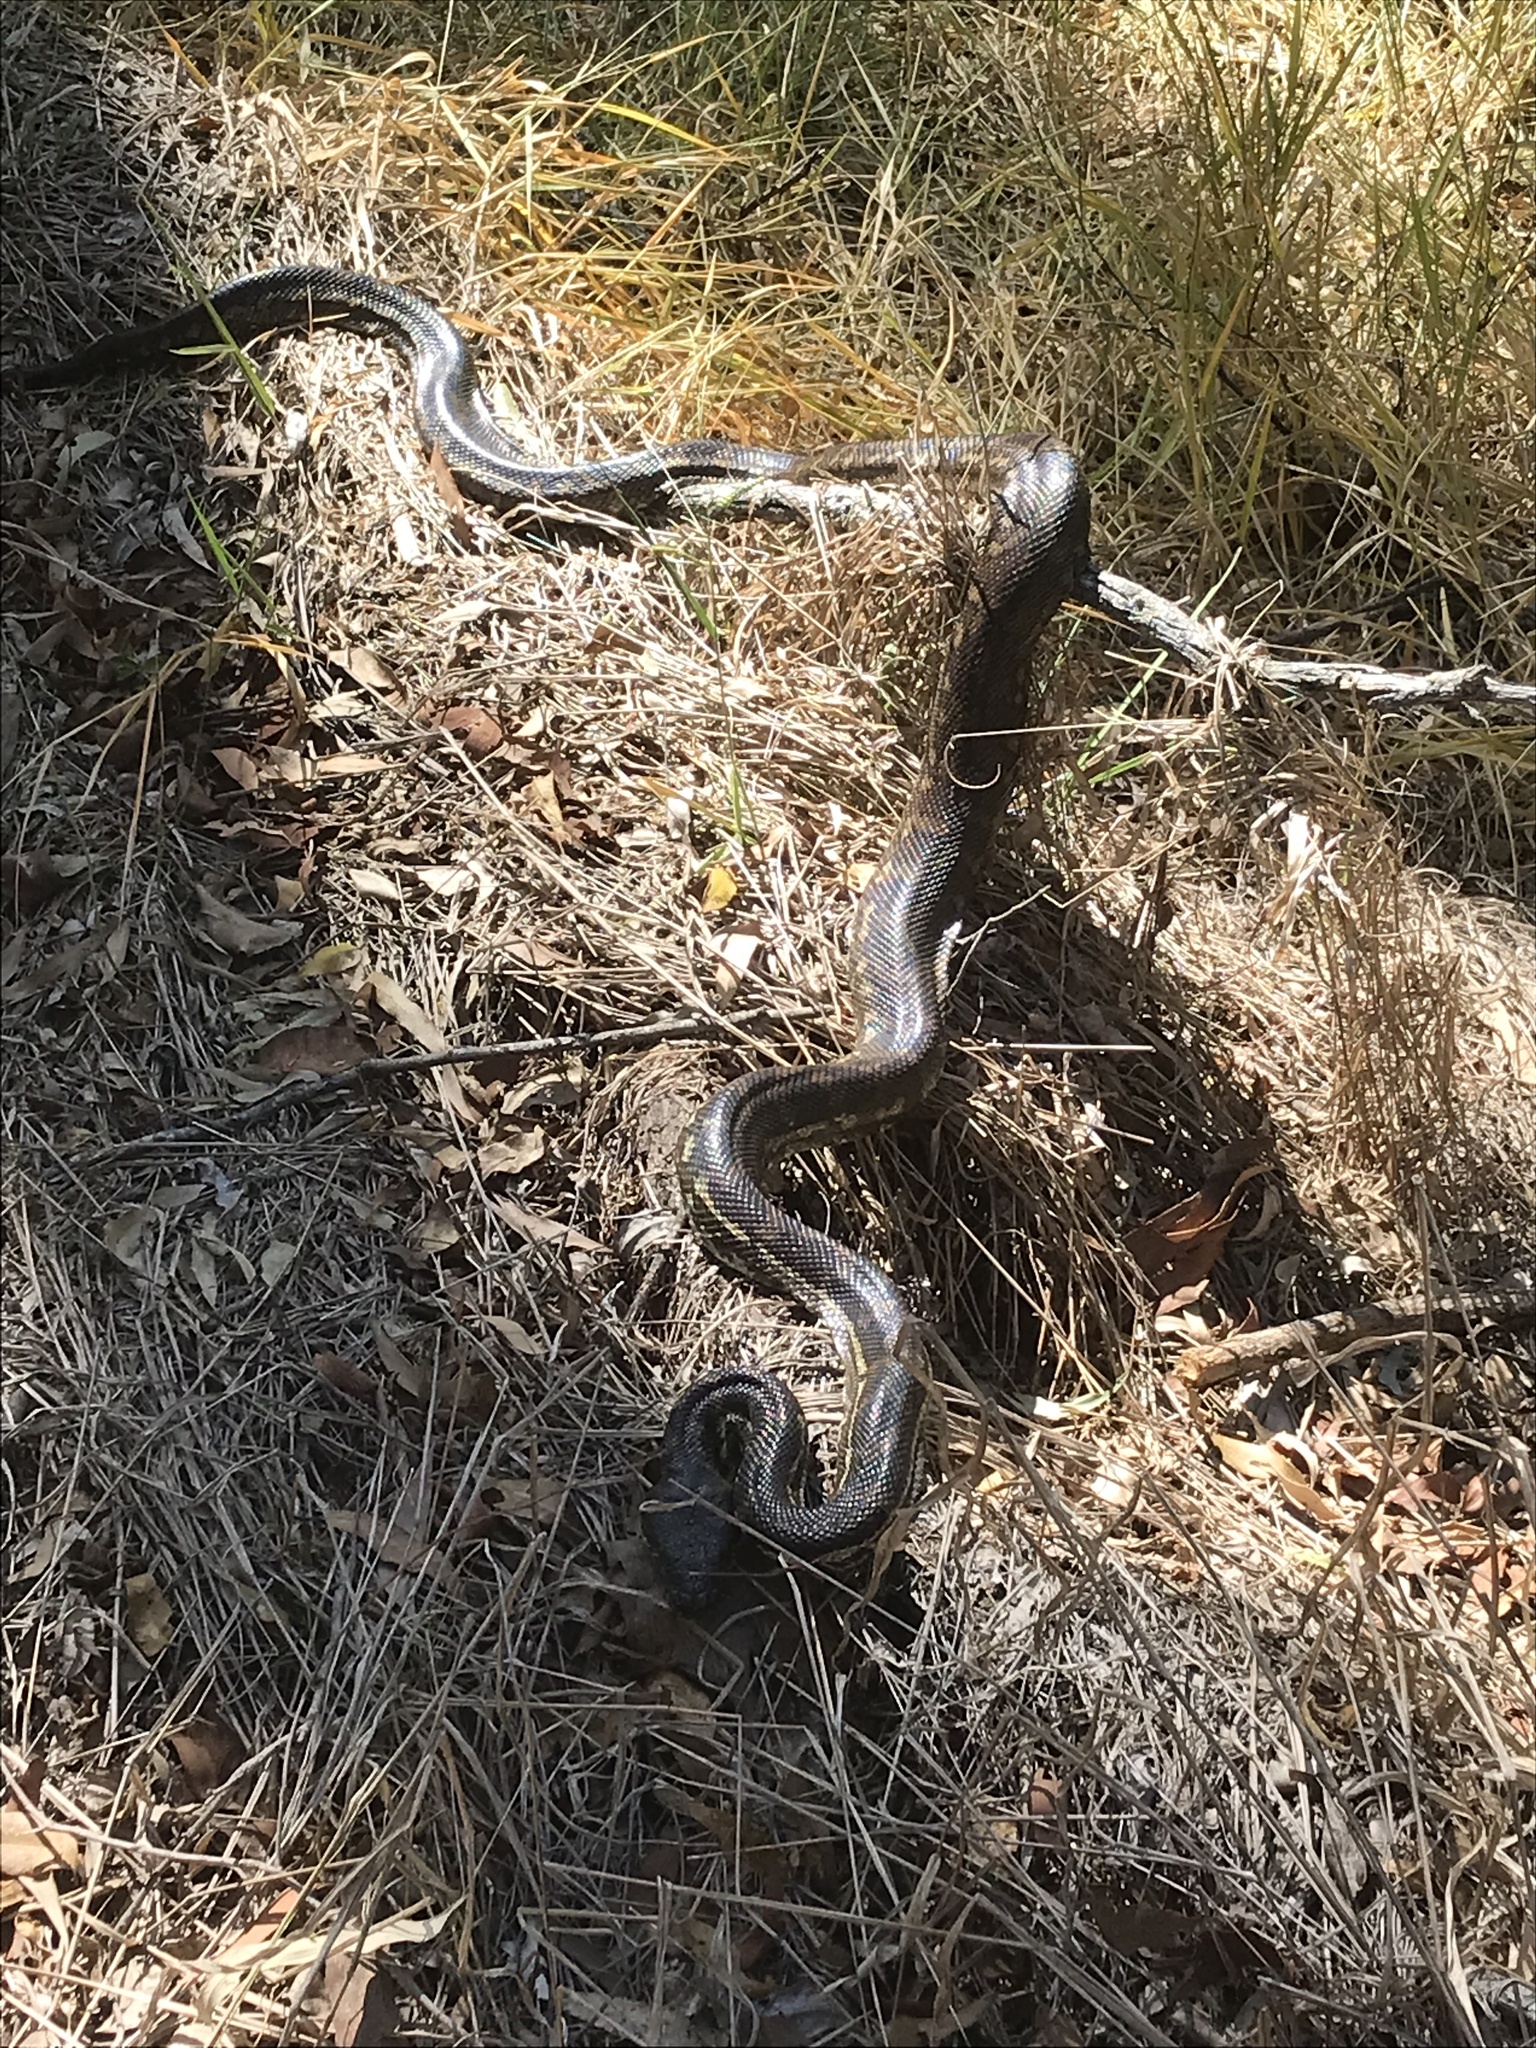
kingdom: Animalia
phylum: Chordata
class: Squamata
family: Pythonidae
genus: Morelia
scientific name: Morelia spilota
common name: Carpet python
